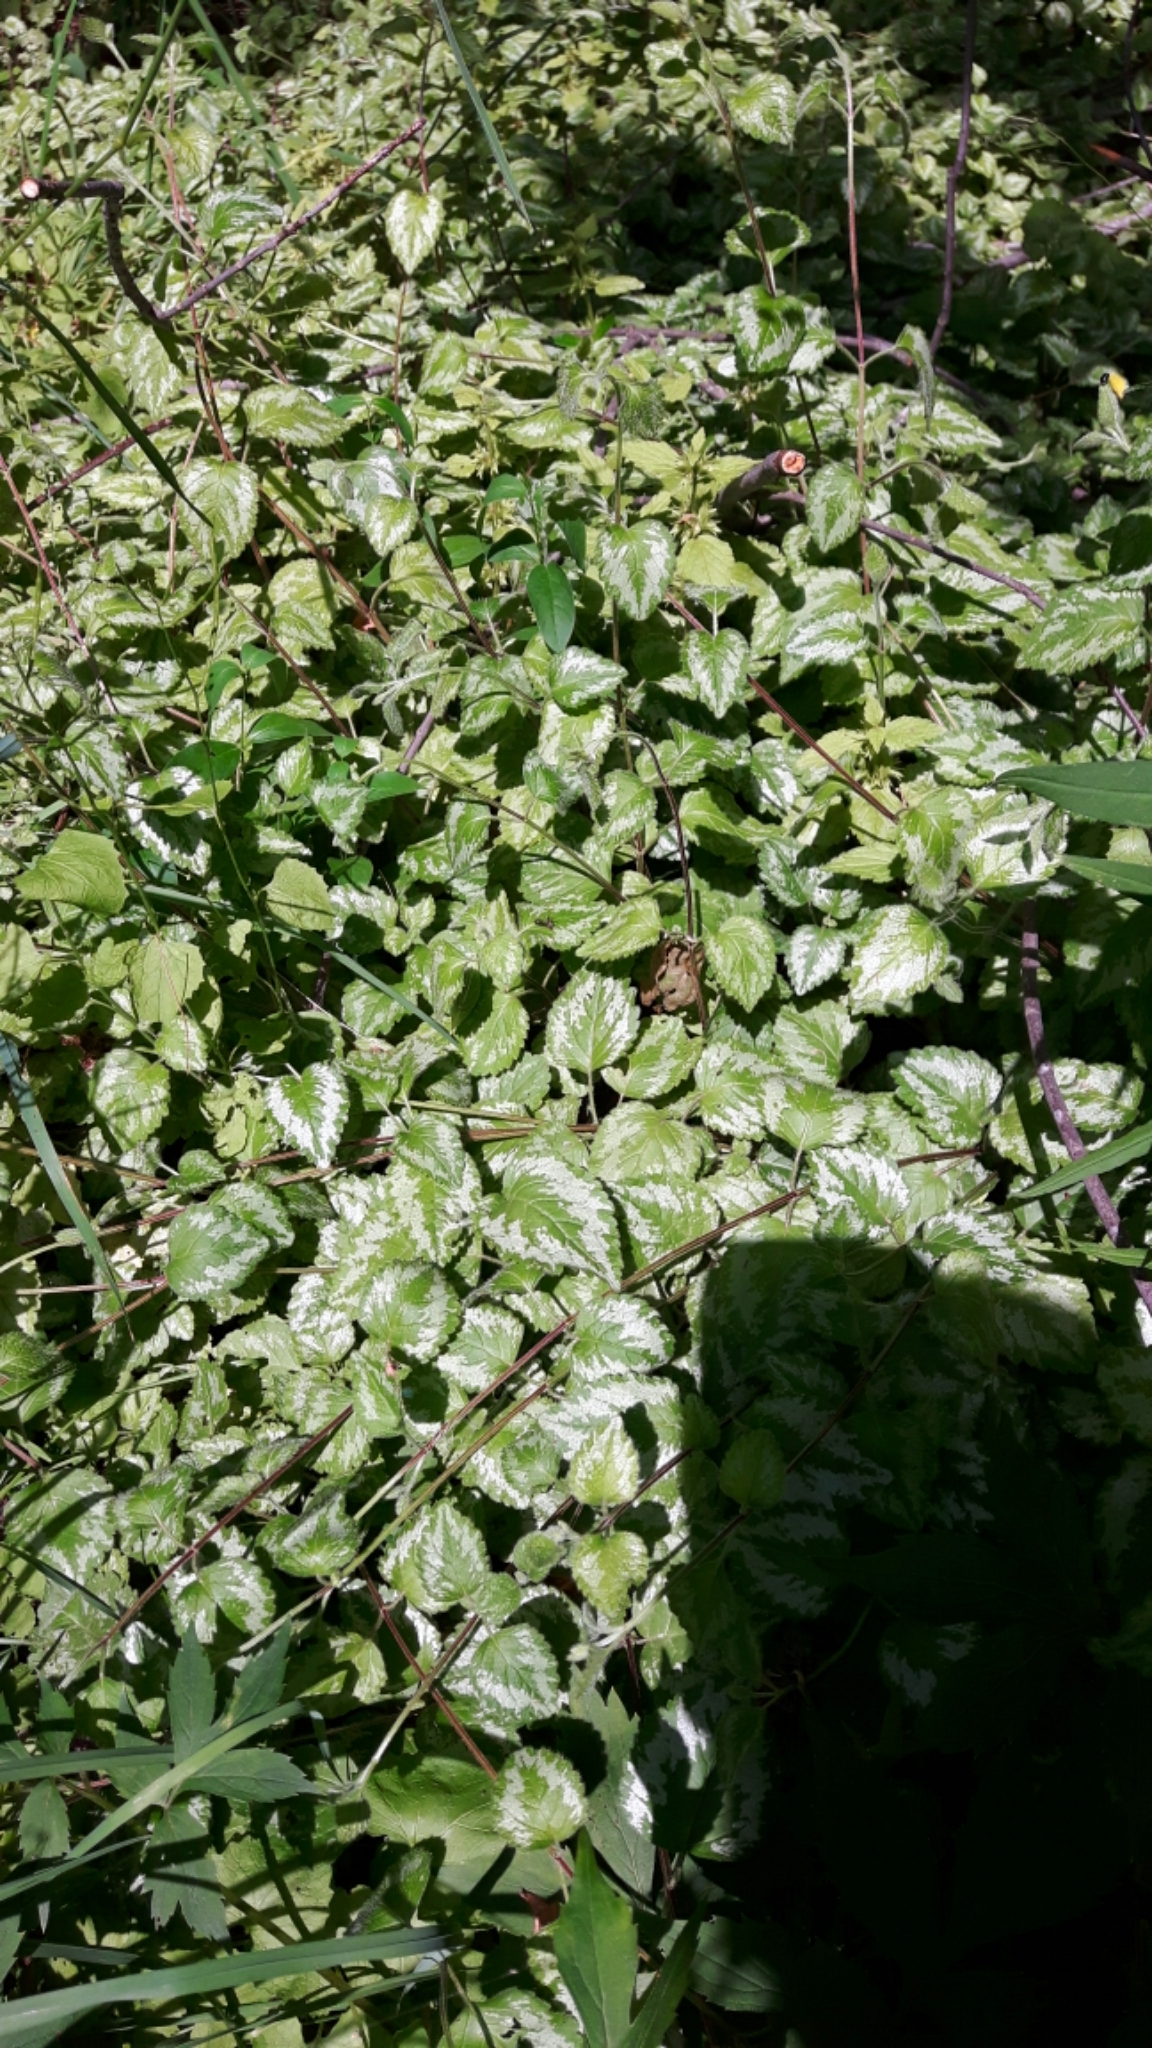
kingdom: Plantae
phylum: Tracheophyta
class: Magnoliopsida
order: Lamiales
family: Lamiaceae
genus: Lamium
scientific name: Lamium galeobdolon
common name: Yellow archangel
